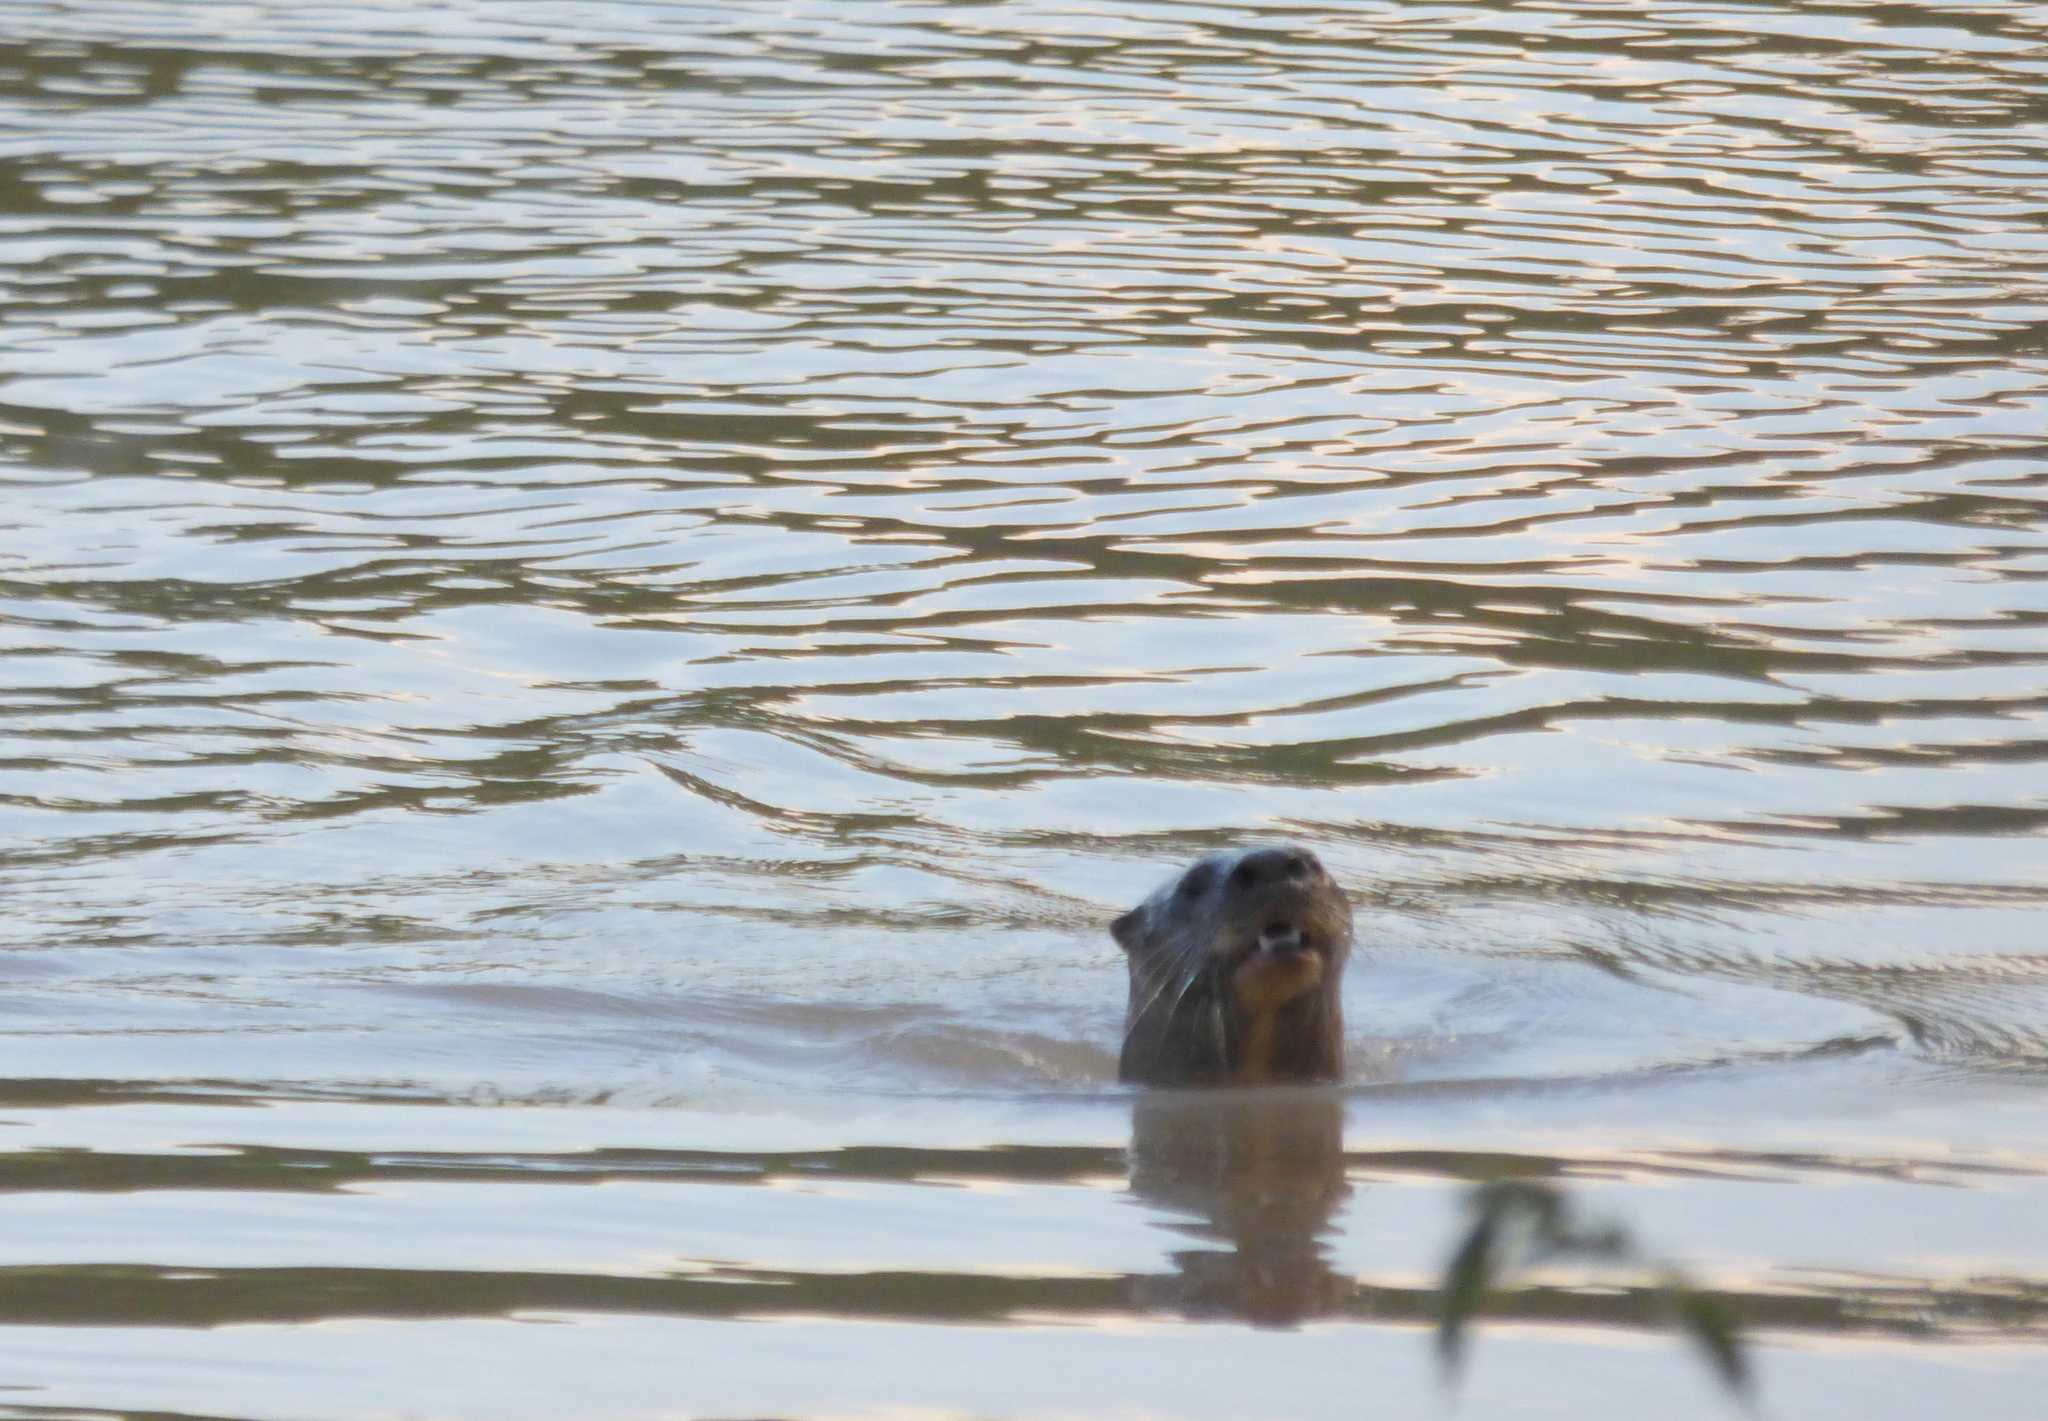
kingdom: Animalia
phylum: Chordata
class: Mammalia
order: Carnivora
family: Mustelidae
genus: Lontra
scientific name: Lontra longicaudis
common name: Neotropical otter
